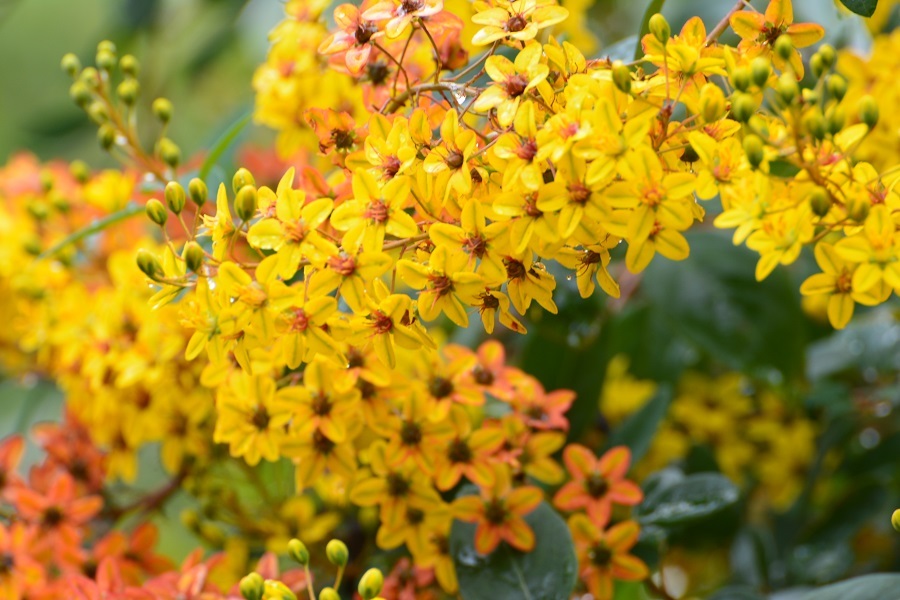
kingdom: Plantae
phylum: Tracheophyta
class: Magnoliopsida
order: Malpighiales
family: Malpighiaceae
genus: Galphimia
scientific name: Galphimia speciosa
